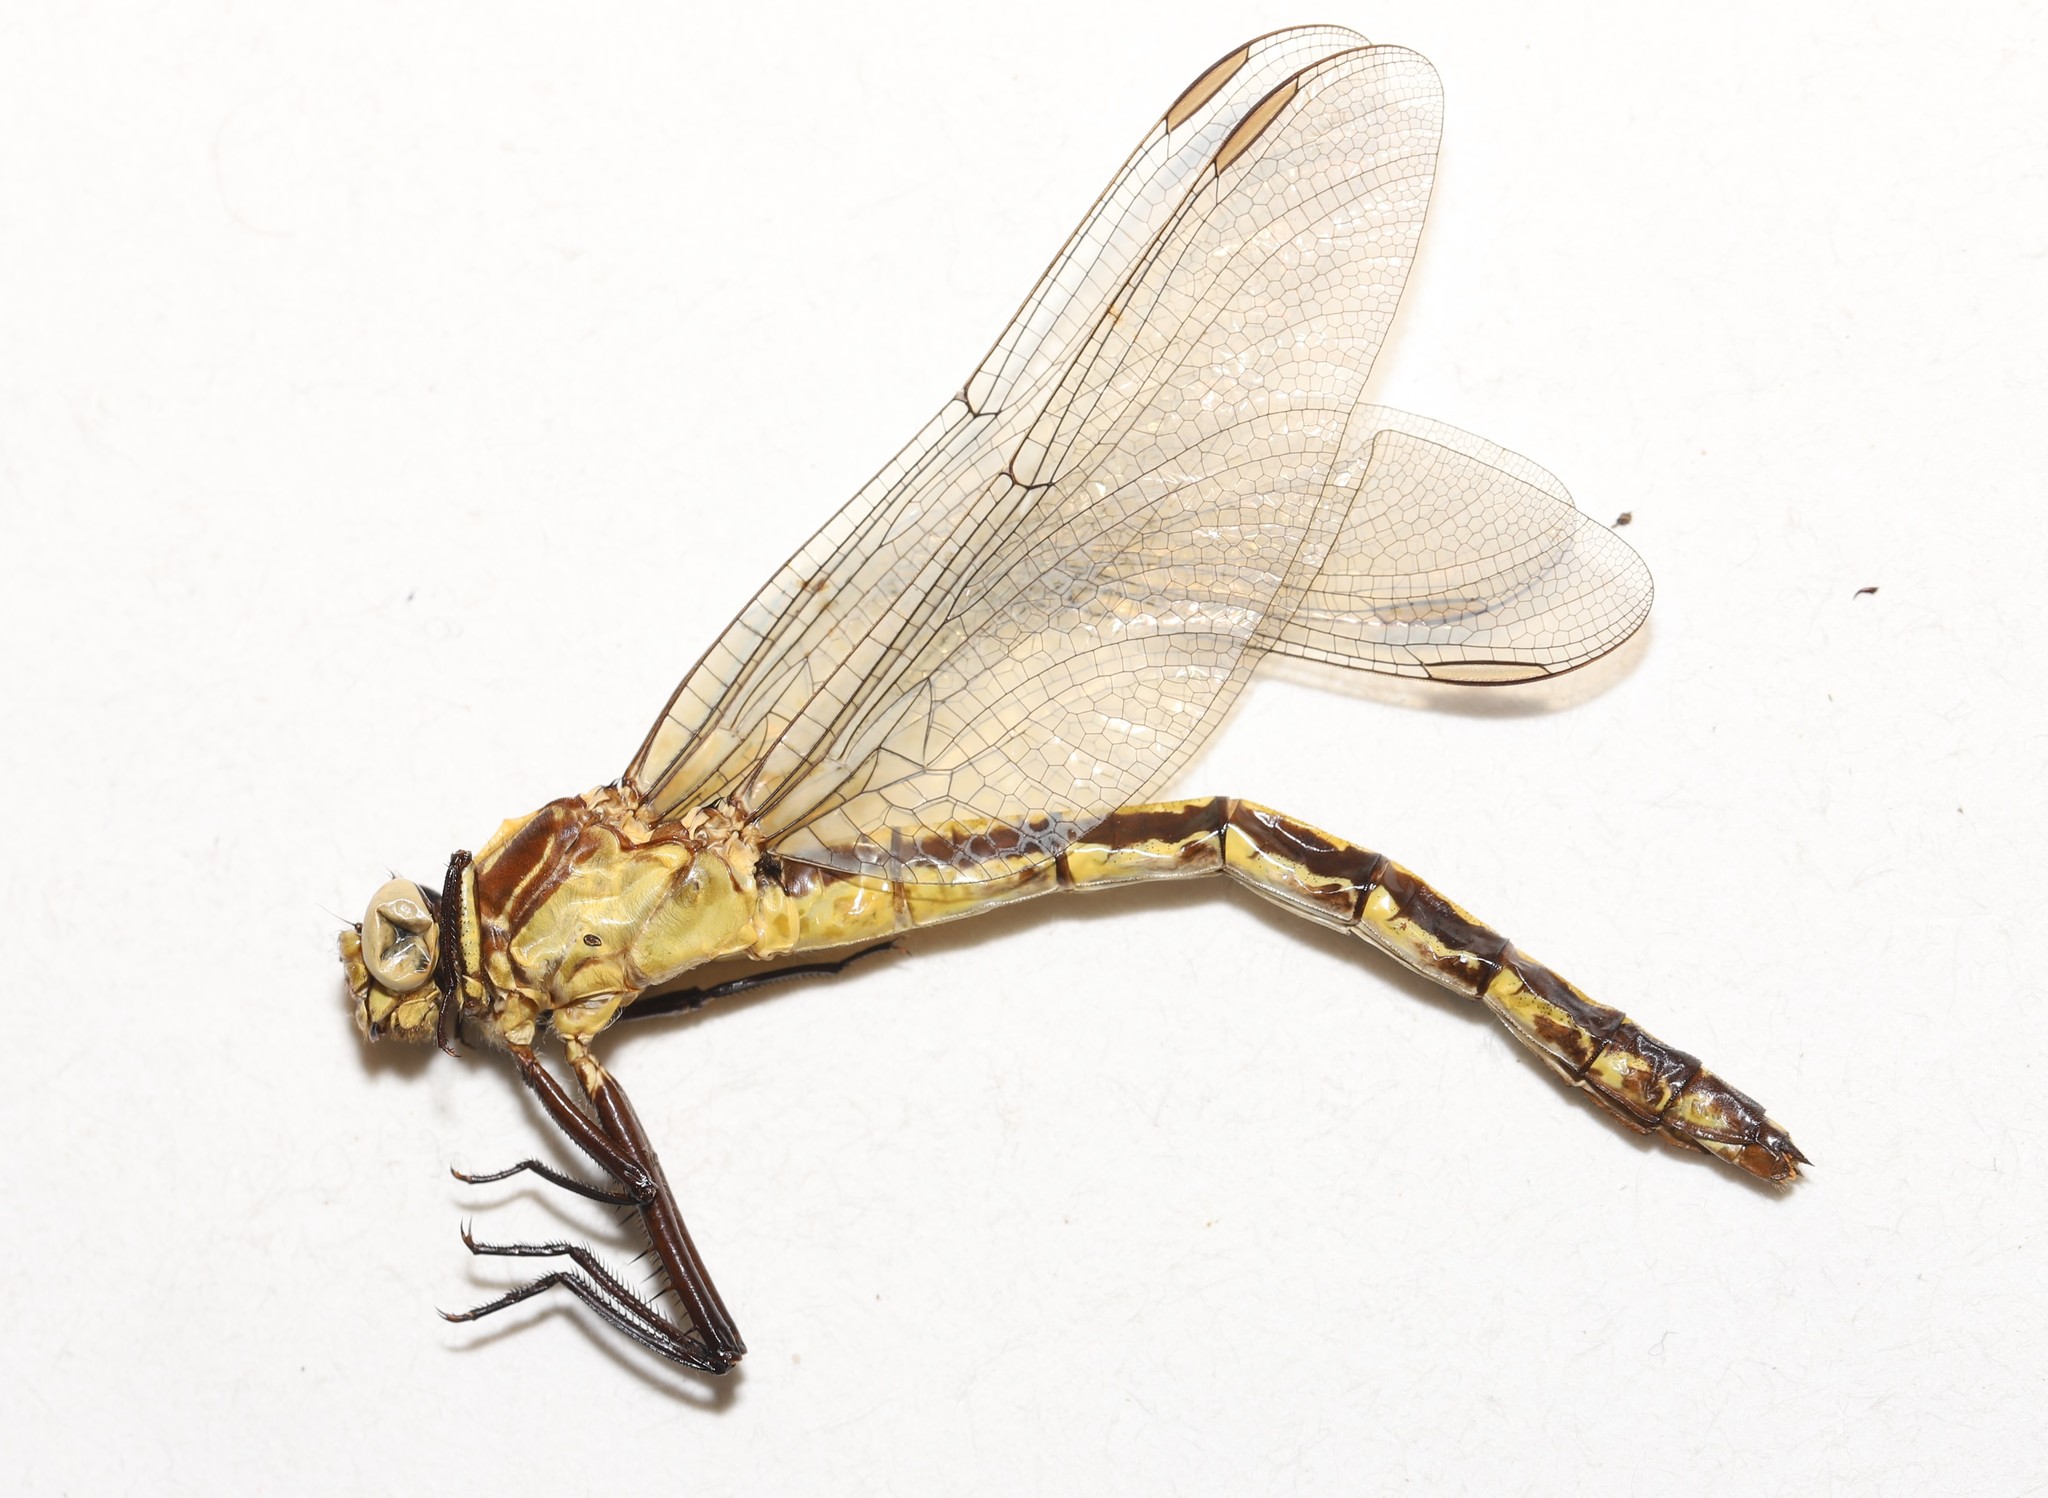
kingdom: Animalia
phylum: Arthropoda
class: Insecta
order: Odonata
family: Gomphidae
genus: Dromogomphus
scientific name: Dromogomphus spinosus
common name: Black-shouldered spinyleg
